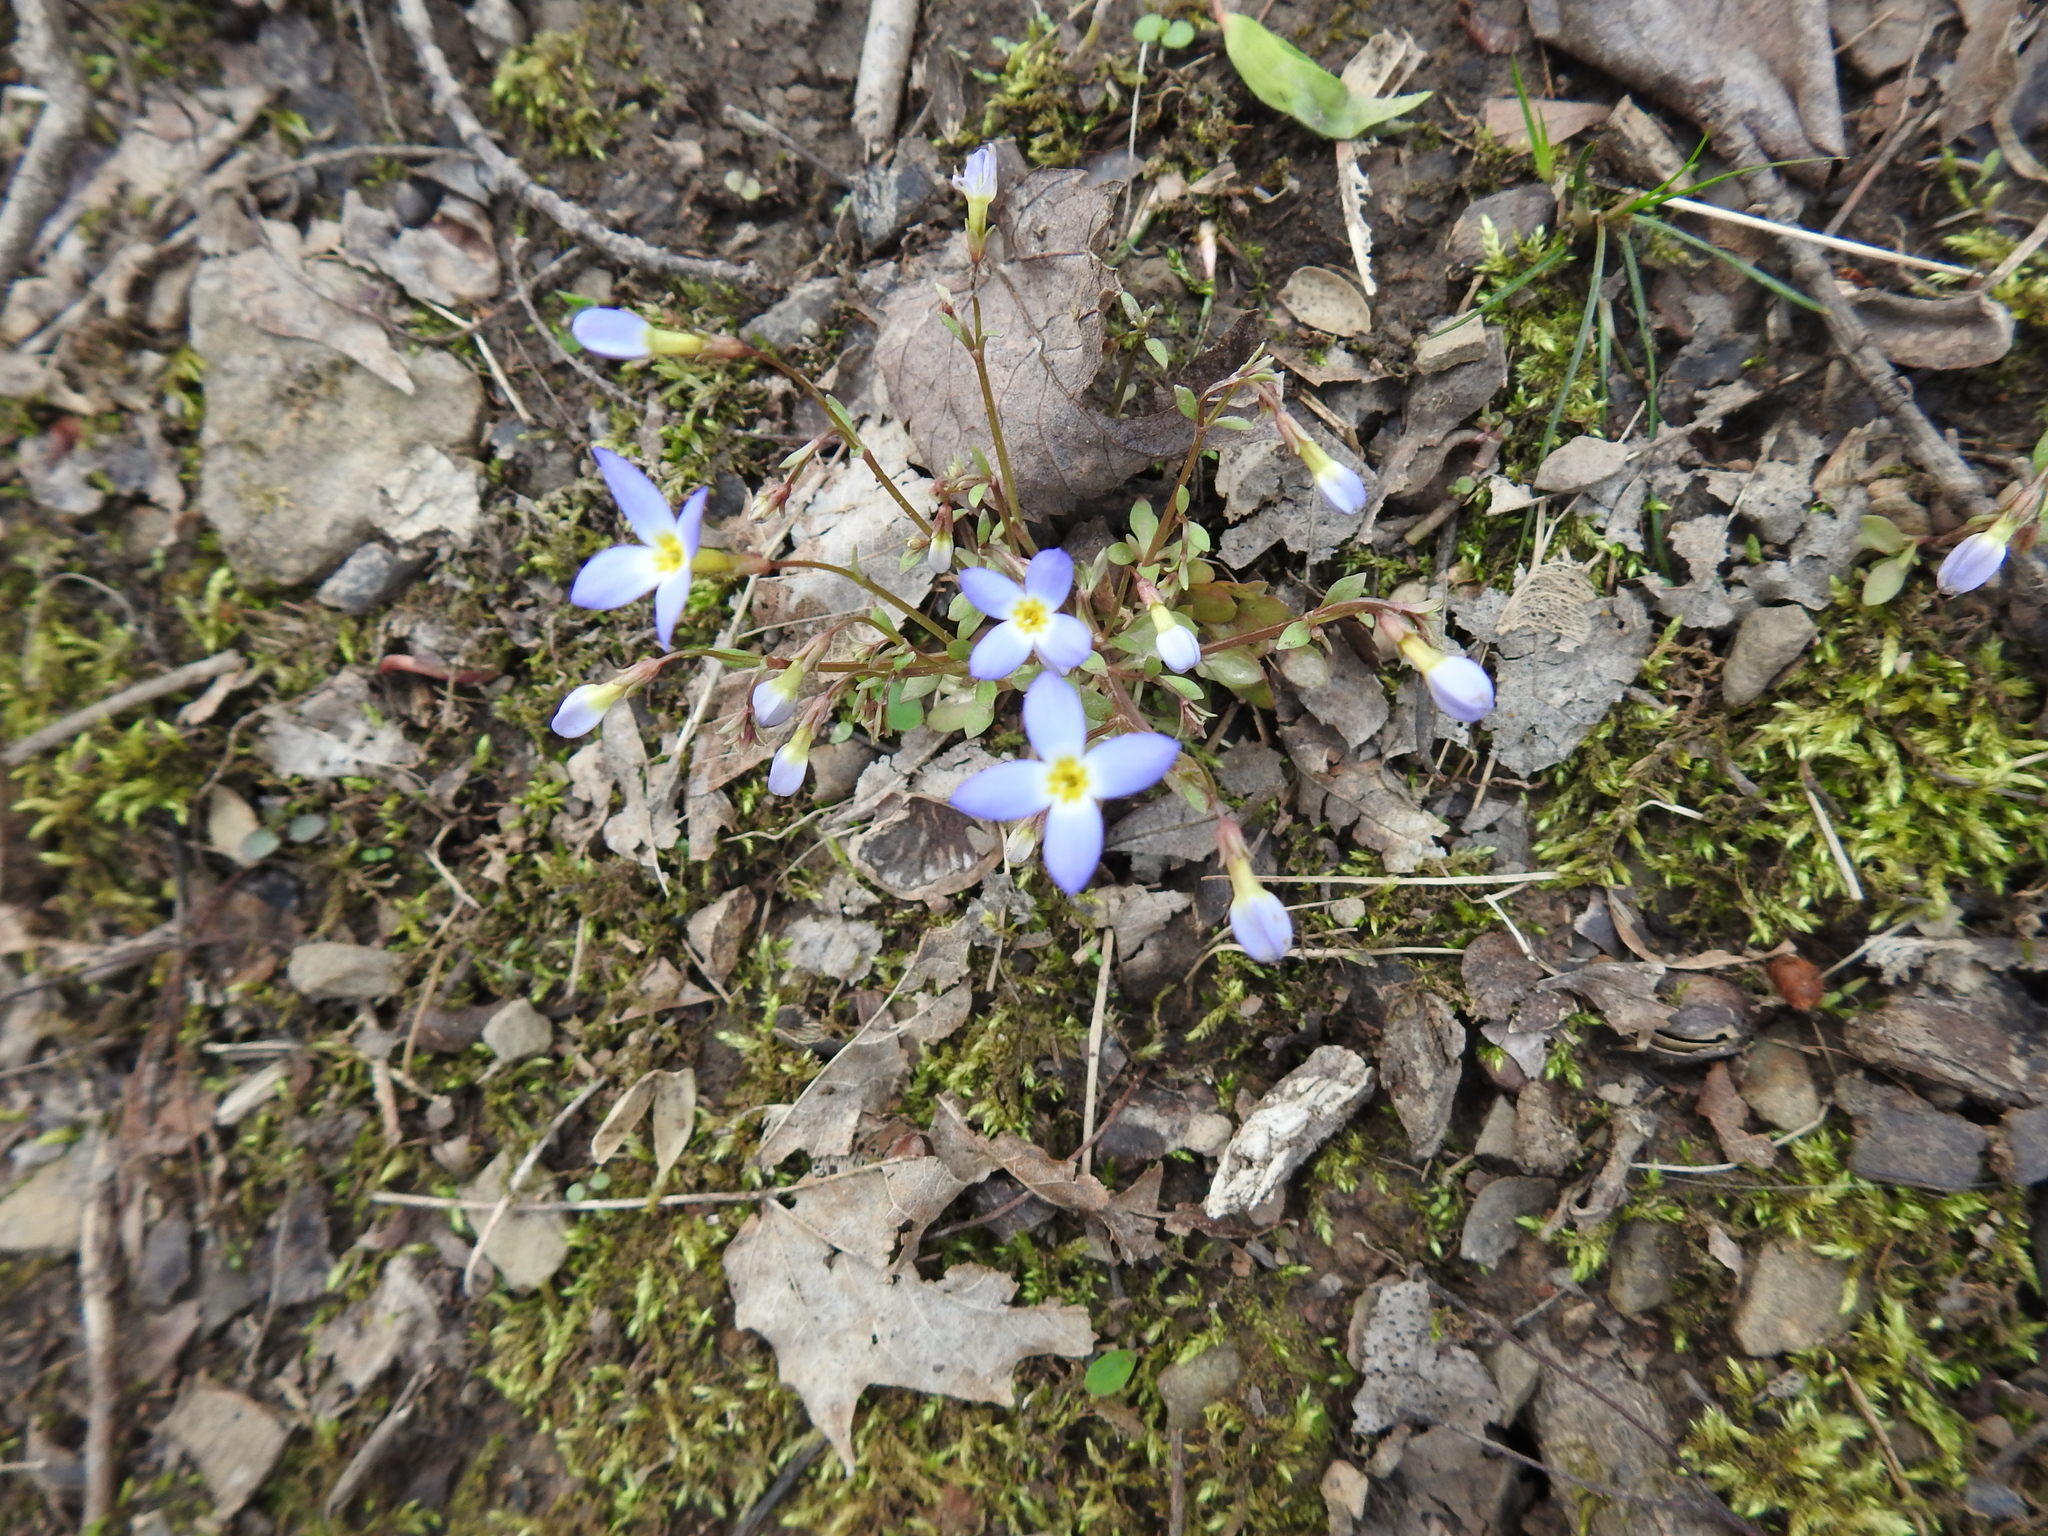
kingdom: Plantae
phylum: Tracheophyta
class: Magnoliopsida
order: Gentianales
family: Rubiaceae
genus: Houstonia
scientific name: Houstonia caerulea
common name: Bluets
